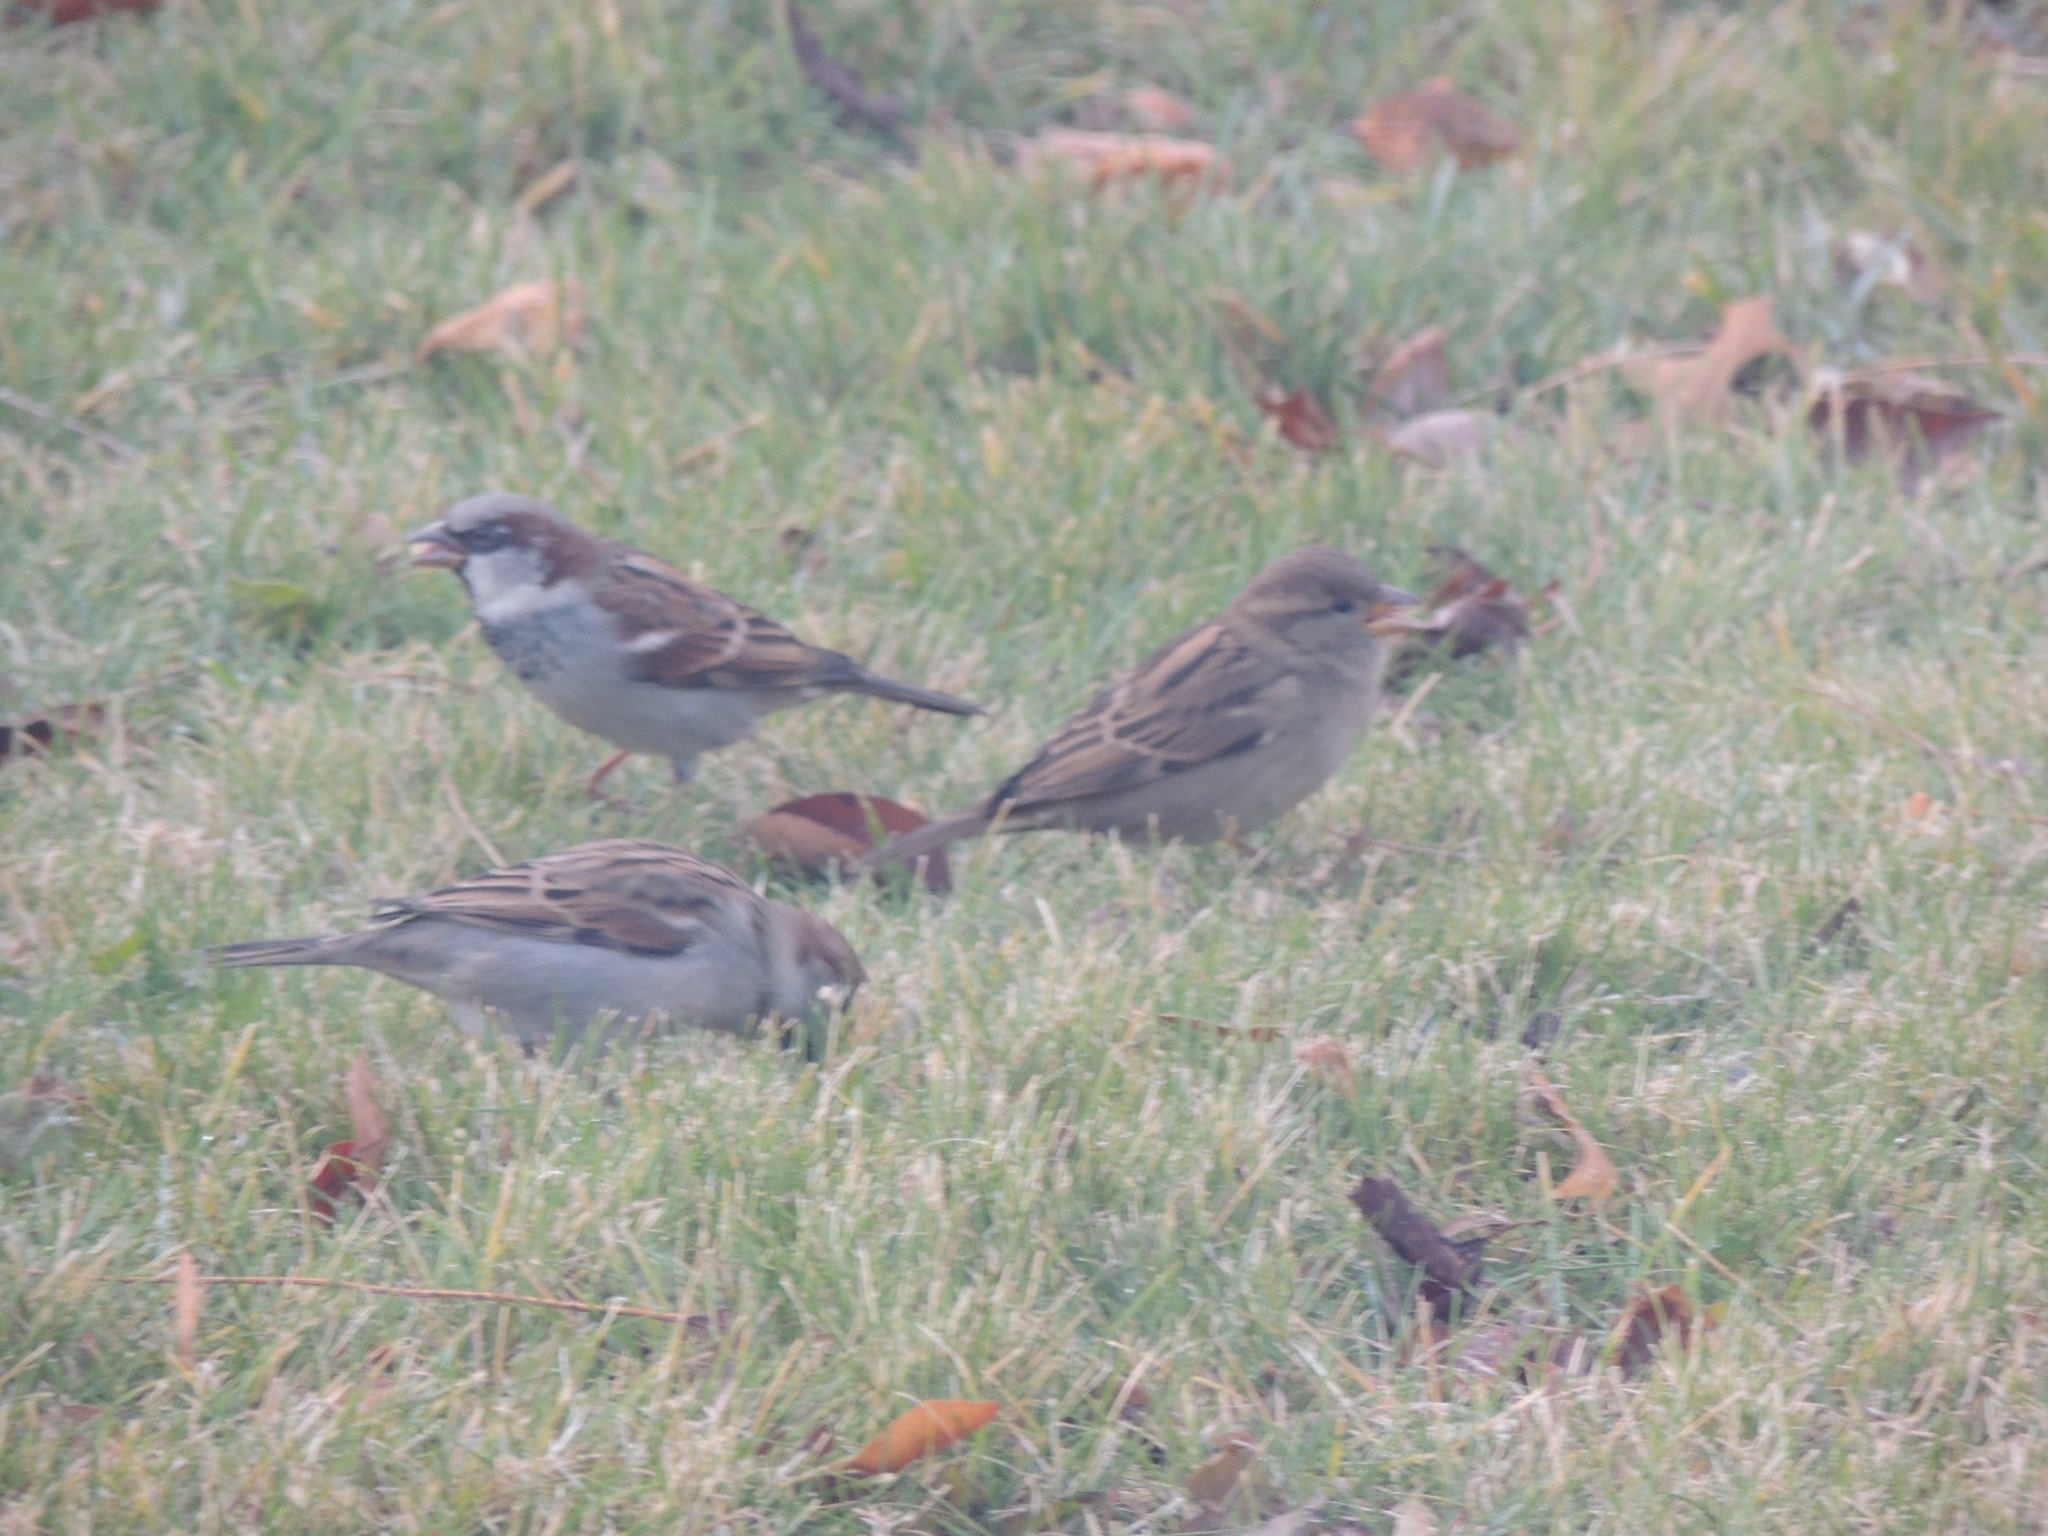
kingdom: Animalia
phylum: Chordata
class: Aves
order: Passeriformes
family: Passeridae
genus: Passer
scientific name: Passer domesticus
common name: House sparrow
